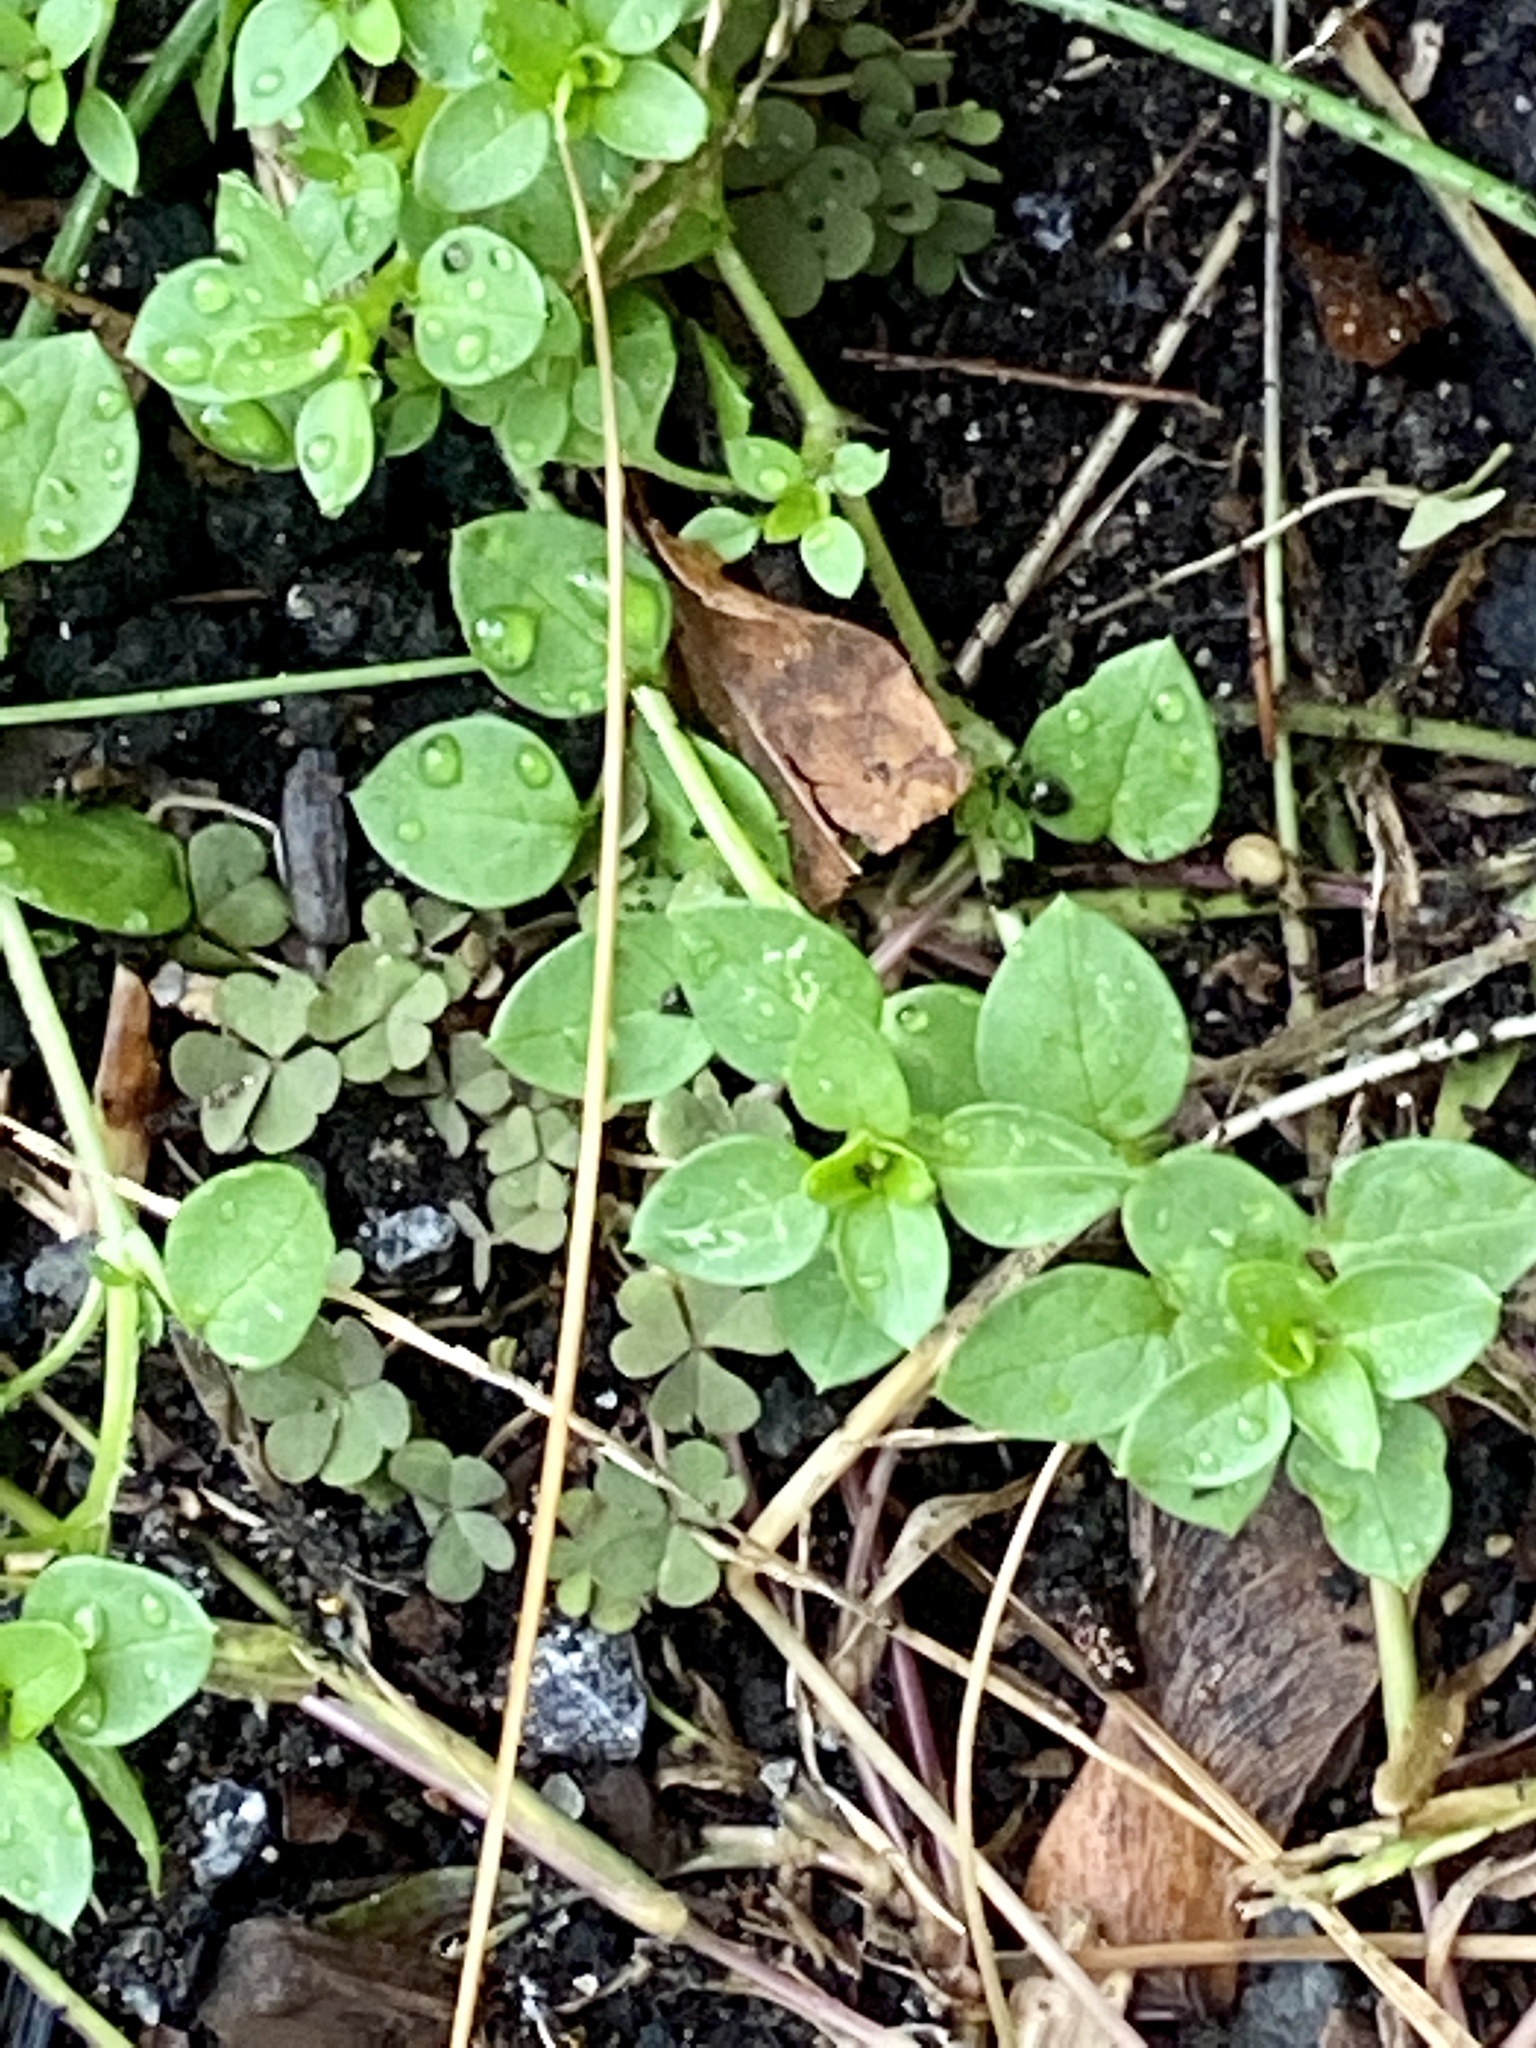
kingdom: Plantae
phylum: Tracheophyta
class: Magnoliopsida
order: Caryophyllales
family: Caryophyllaceae
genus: Stellaria
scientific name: Stellaria media
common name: Common chickweed
